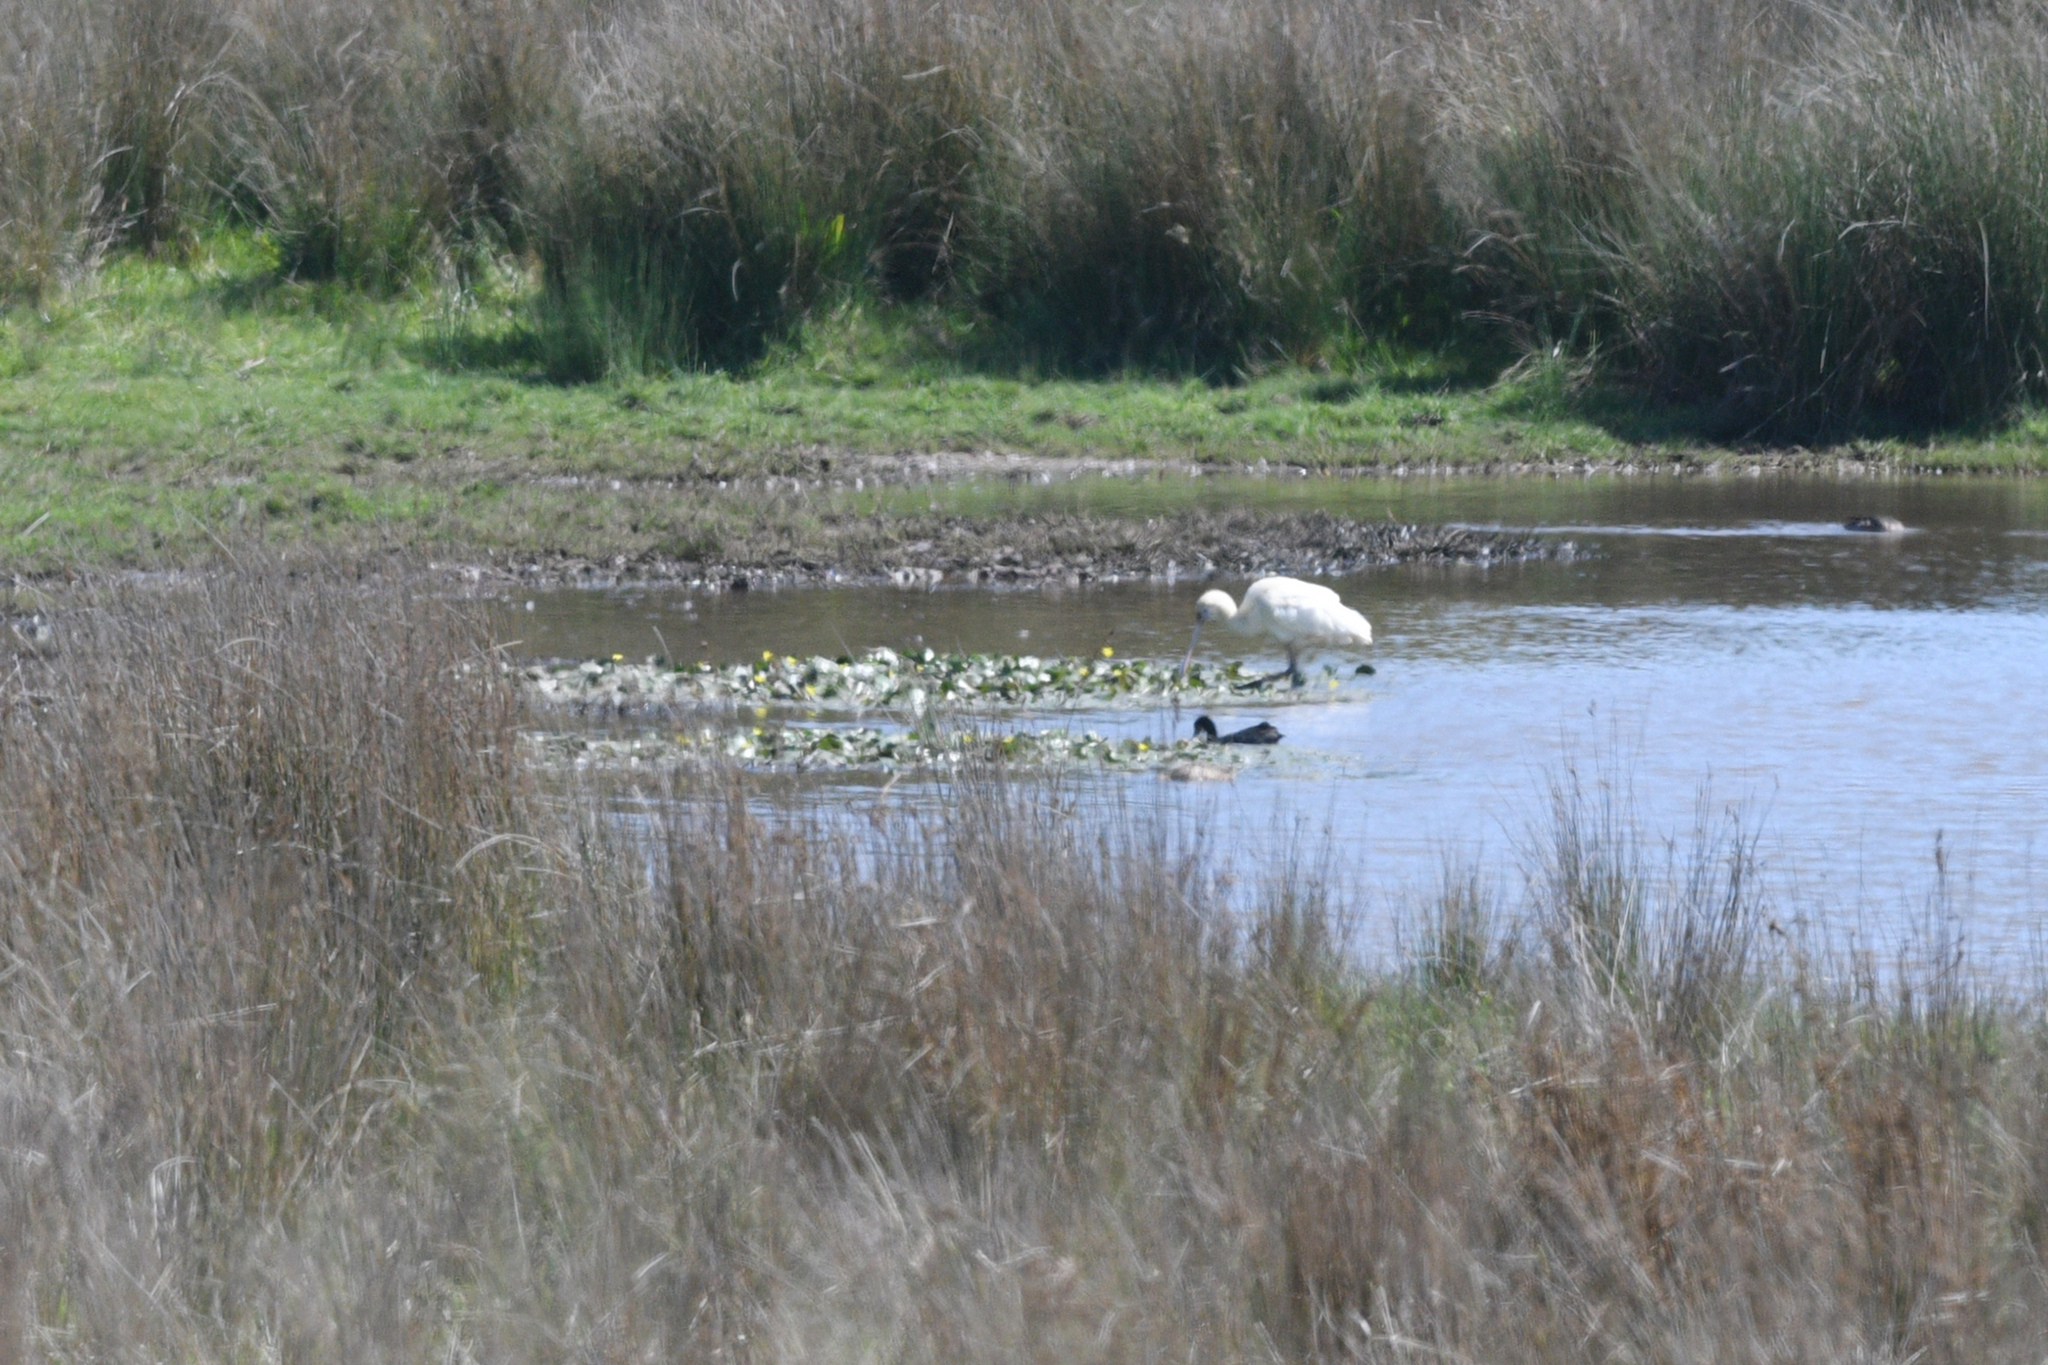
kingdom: Animalia
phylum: Chordata
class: Aves
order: Pelecaniformes
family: Threskiornithidae
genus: Platalea
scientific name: Platalea flavipes
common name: Yellow-billed spoonbill
